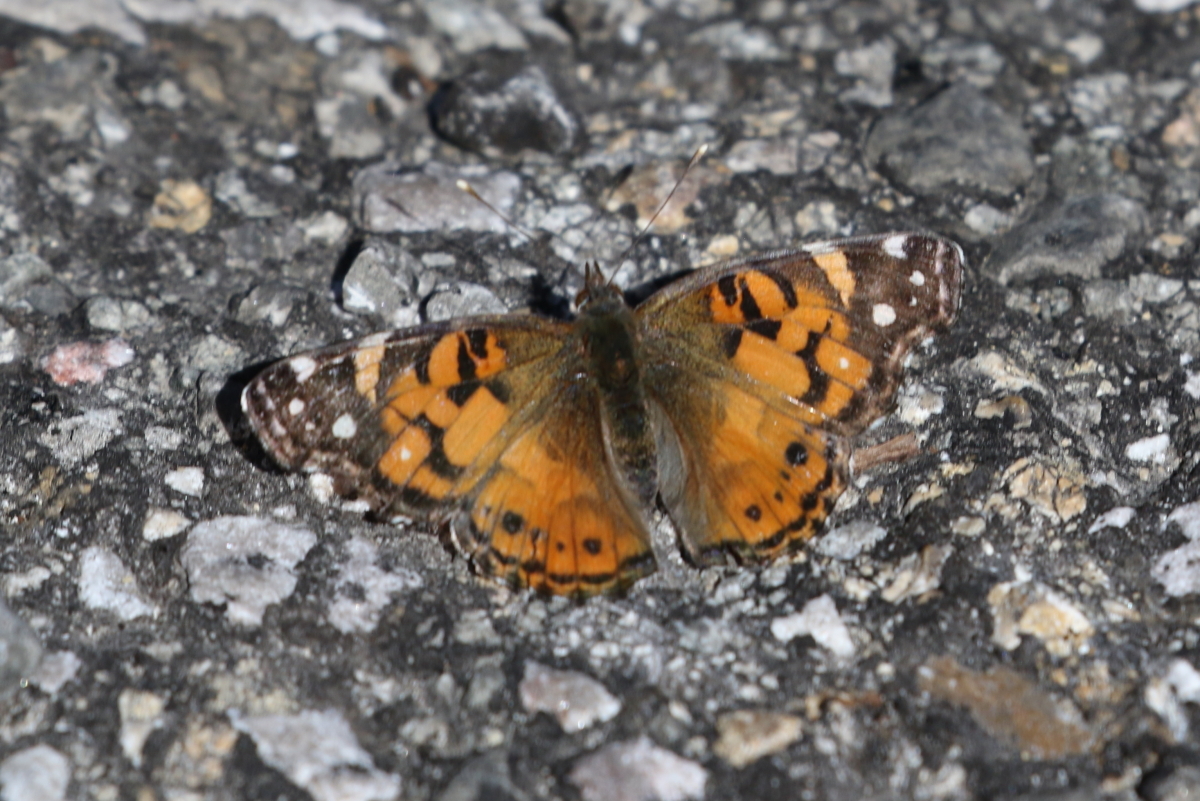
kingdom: Animalia
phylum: Arthropoda
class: Insecta
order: Lepidoptera
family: Nymphalidae
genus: Vanessa
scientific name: Vanessa virginiensis
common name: American lady
